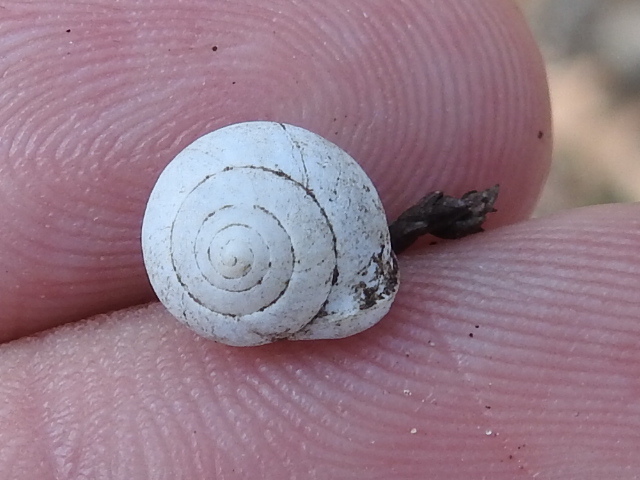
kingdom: Animalia
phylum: Mollusca
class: Gastropoda
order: Cycloneritida
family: Helicinidae
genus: Helicina
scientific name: Helicina orbiculata
